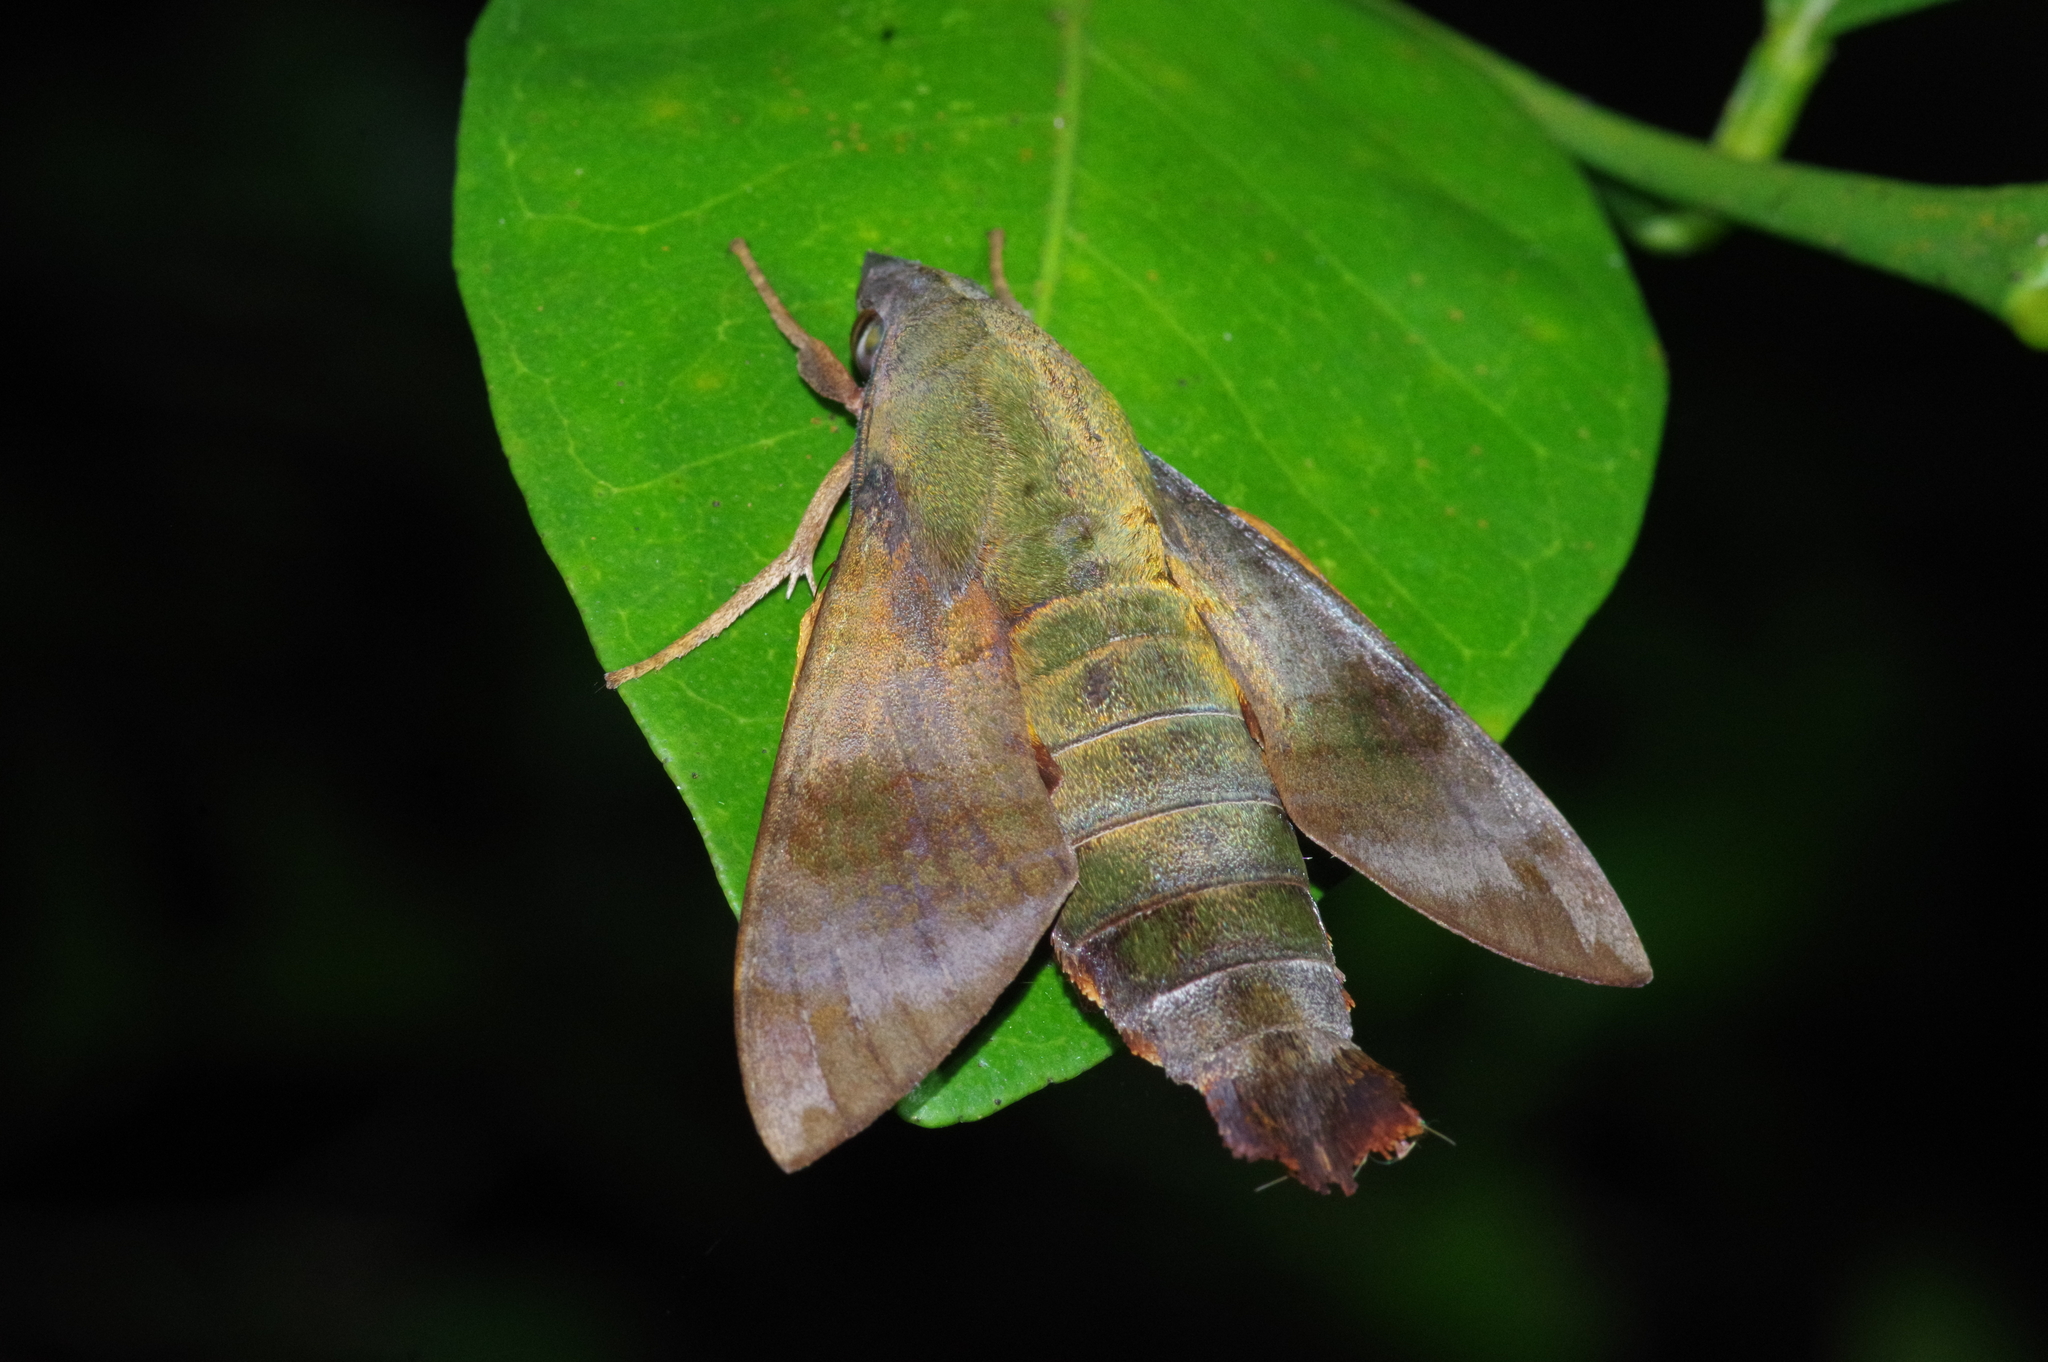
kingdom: Animalia
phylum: Arthropoda
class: Insecta
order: Lepidoptera
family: Sphingidae
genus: Macroglossum
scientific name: Macroglossum corythus
